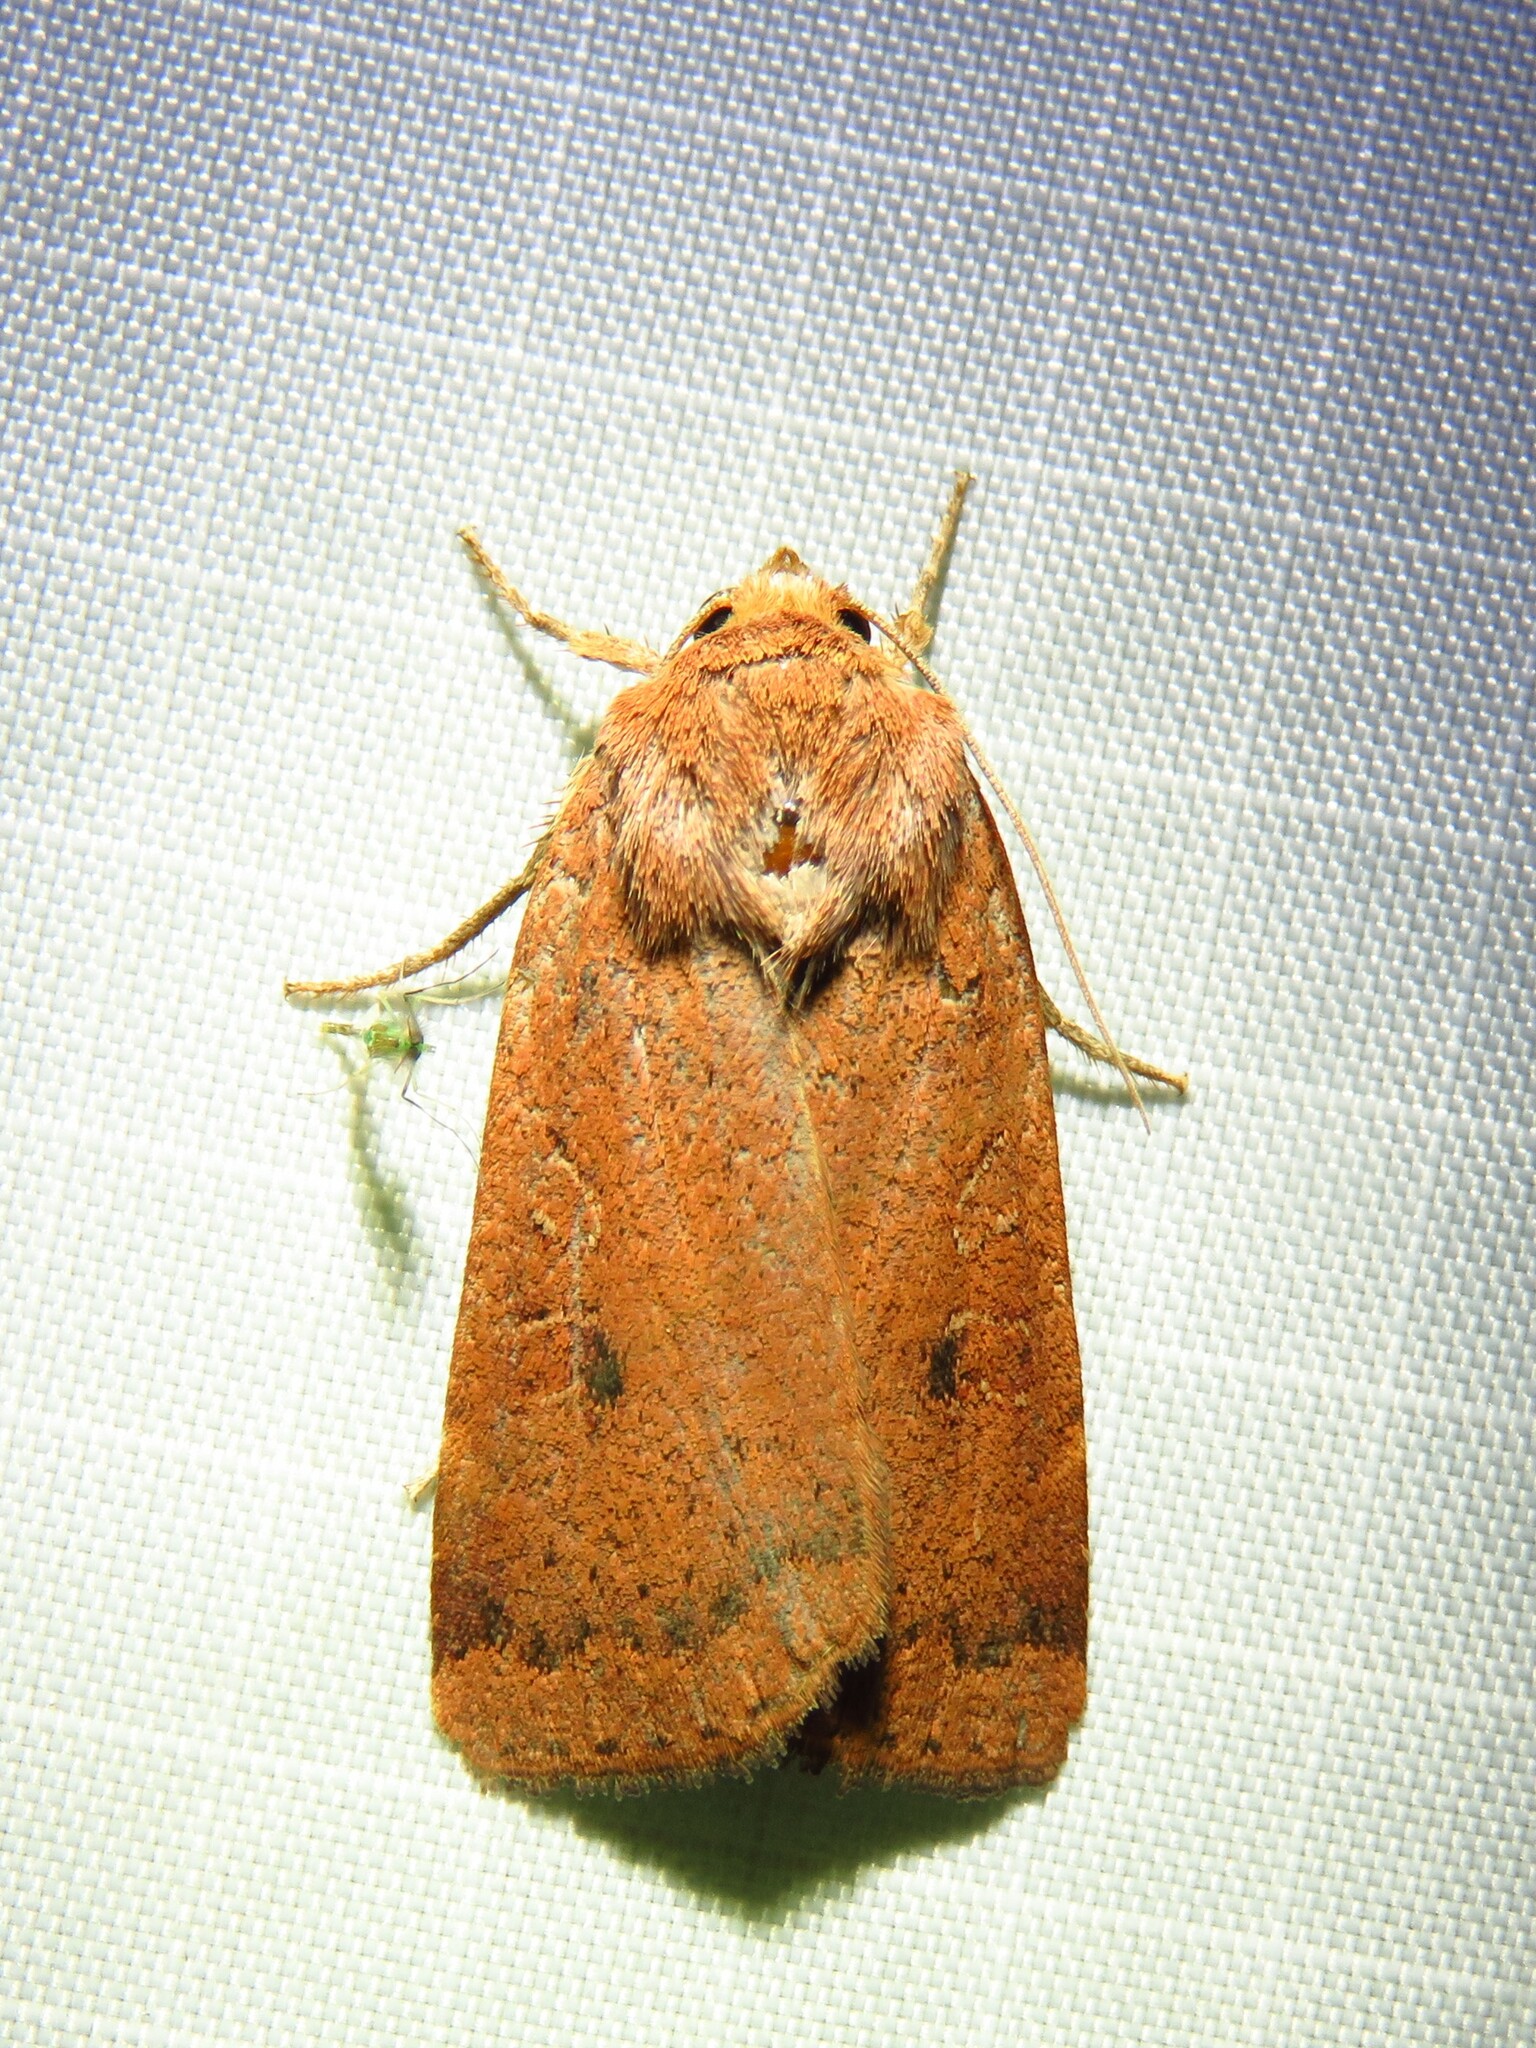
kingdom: Animalia
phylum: Arthropoda
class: Insecta
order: Lepidoptera
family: Noctuidae
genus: Noctua
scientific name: Noctua comes
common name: Lesser yellow underwing
